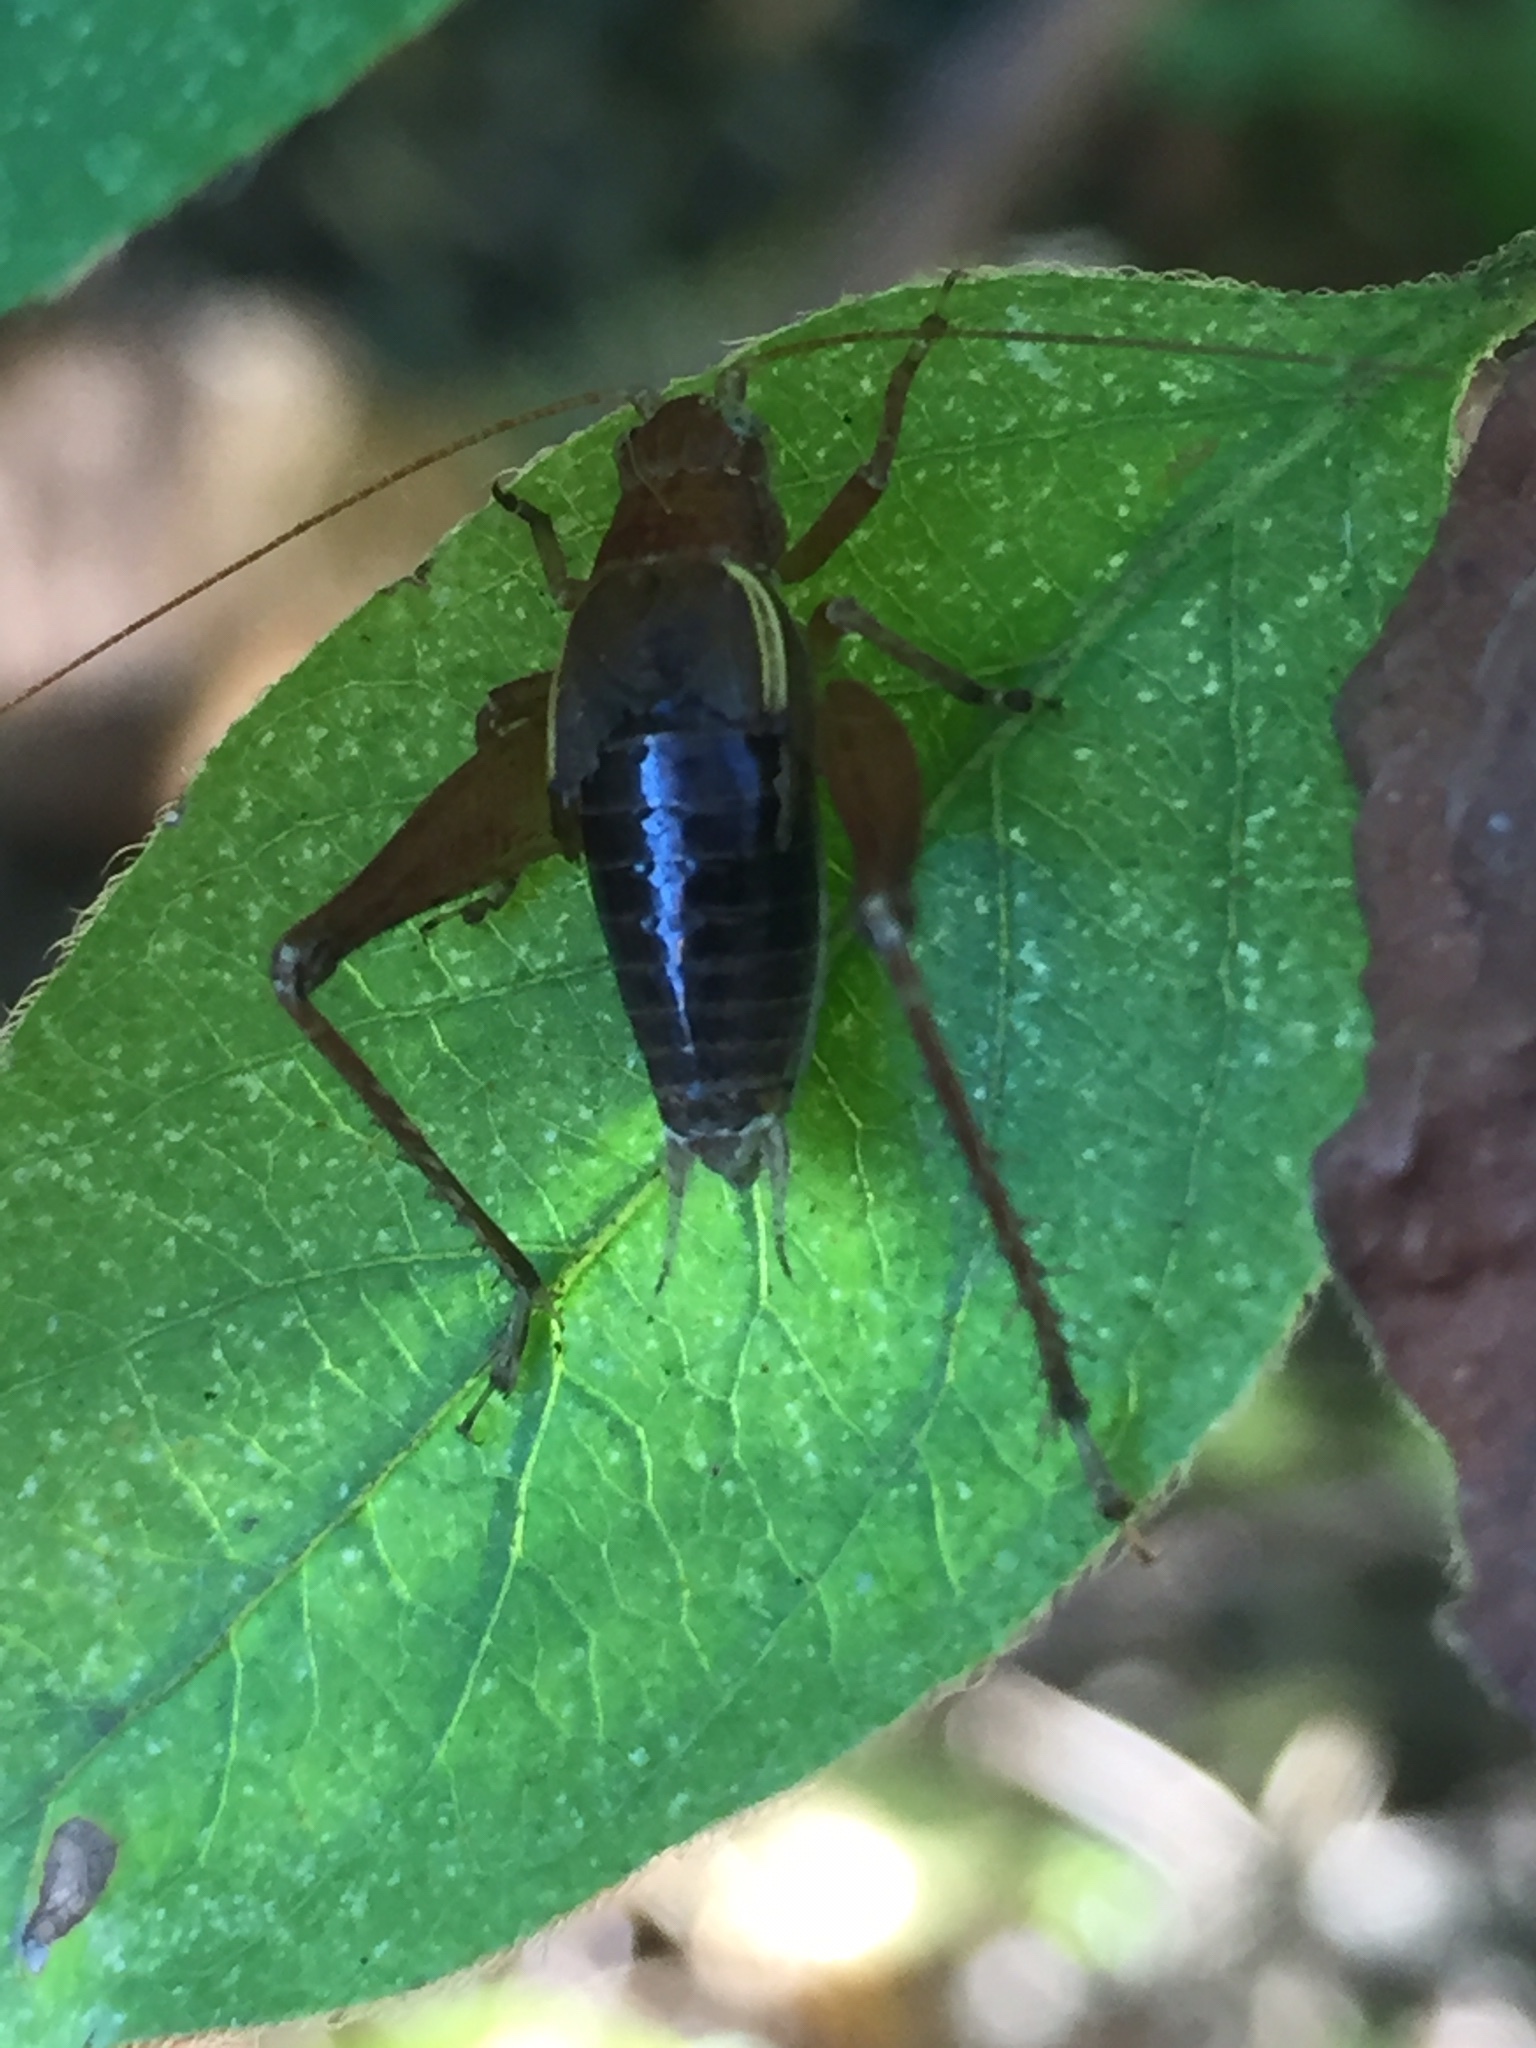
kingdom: Animalia
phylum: Arthropoda
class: Insecta
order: Orthoptera
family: Gryllidae
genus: Hapithus
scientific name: Hapithus agitator
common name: Restless bush cricket
